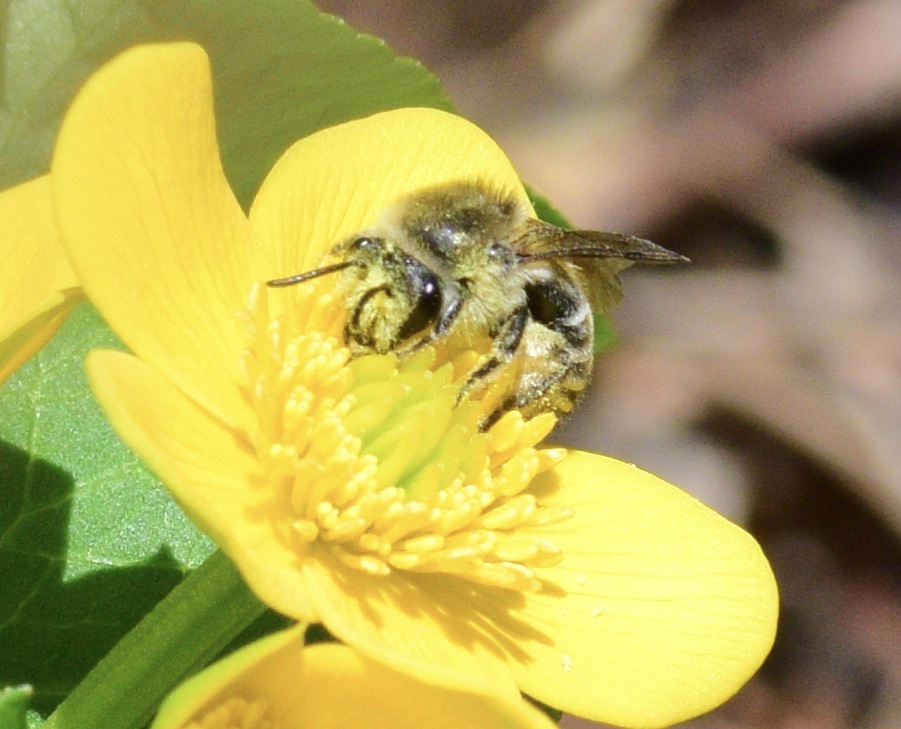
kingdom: Animalia
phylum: Arthropoda
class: Insecta
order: Hymenoptera
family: Colletidae
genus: Colletes
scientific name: Colletes inaequalis
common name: Unequal cellophane bee
